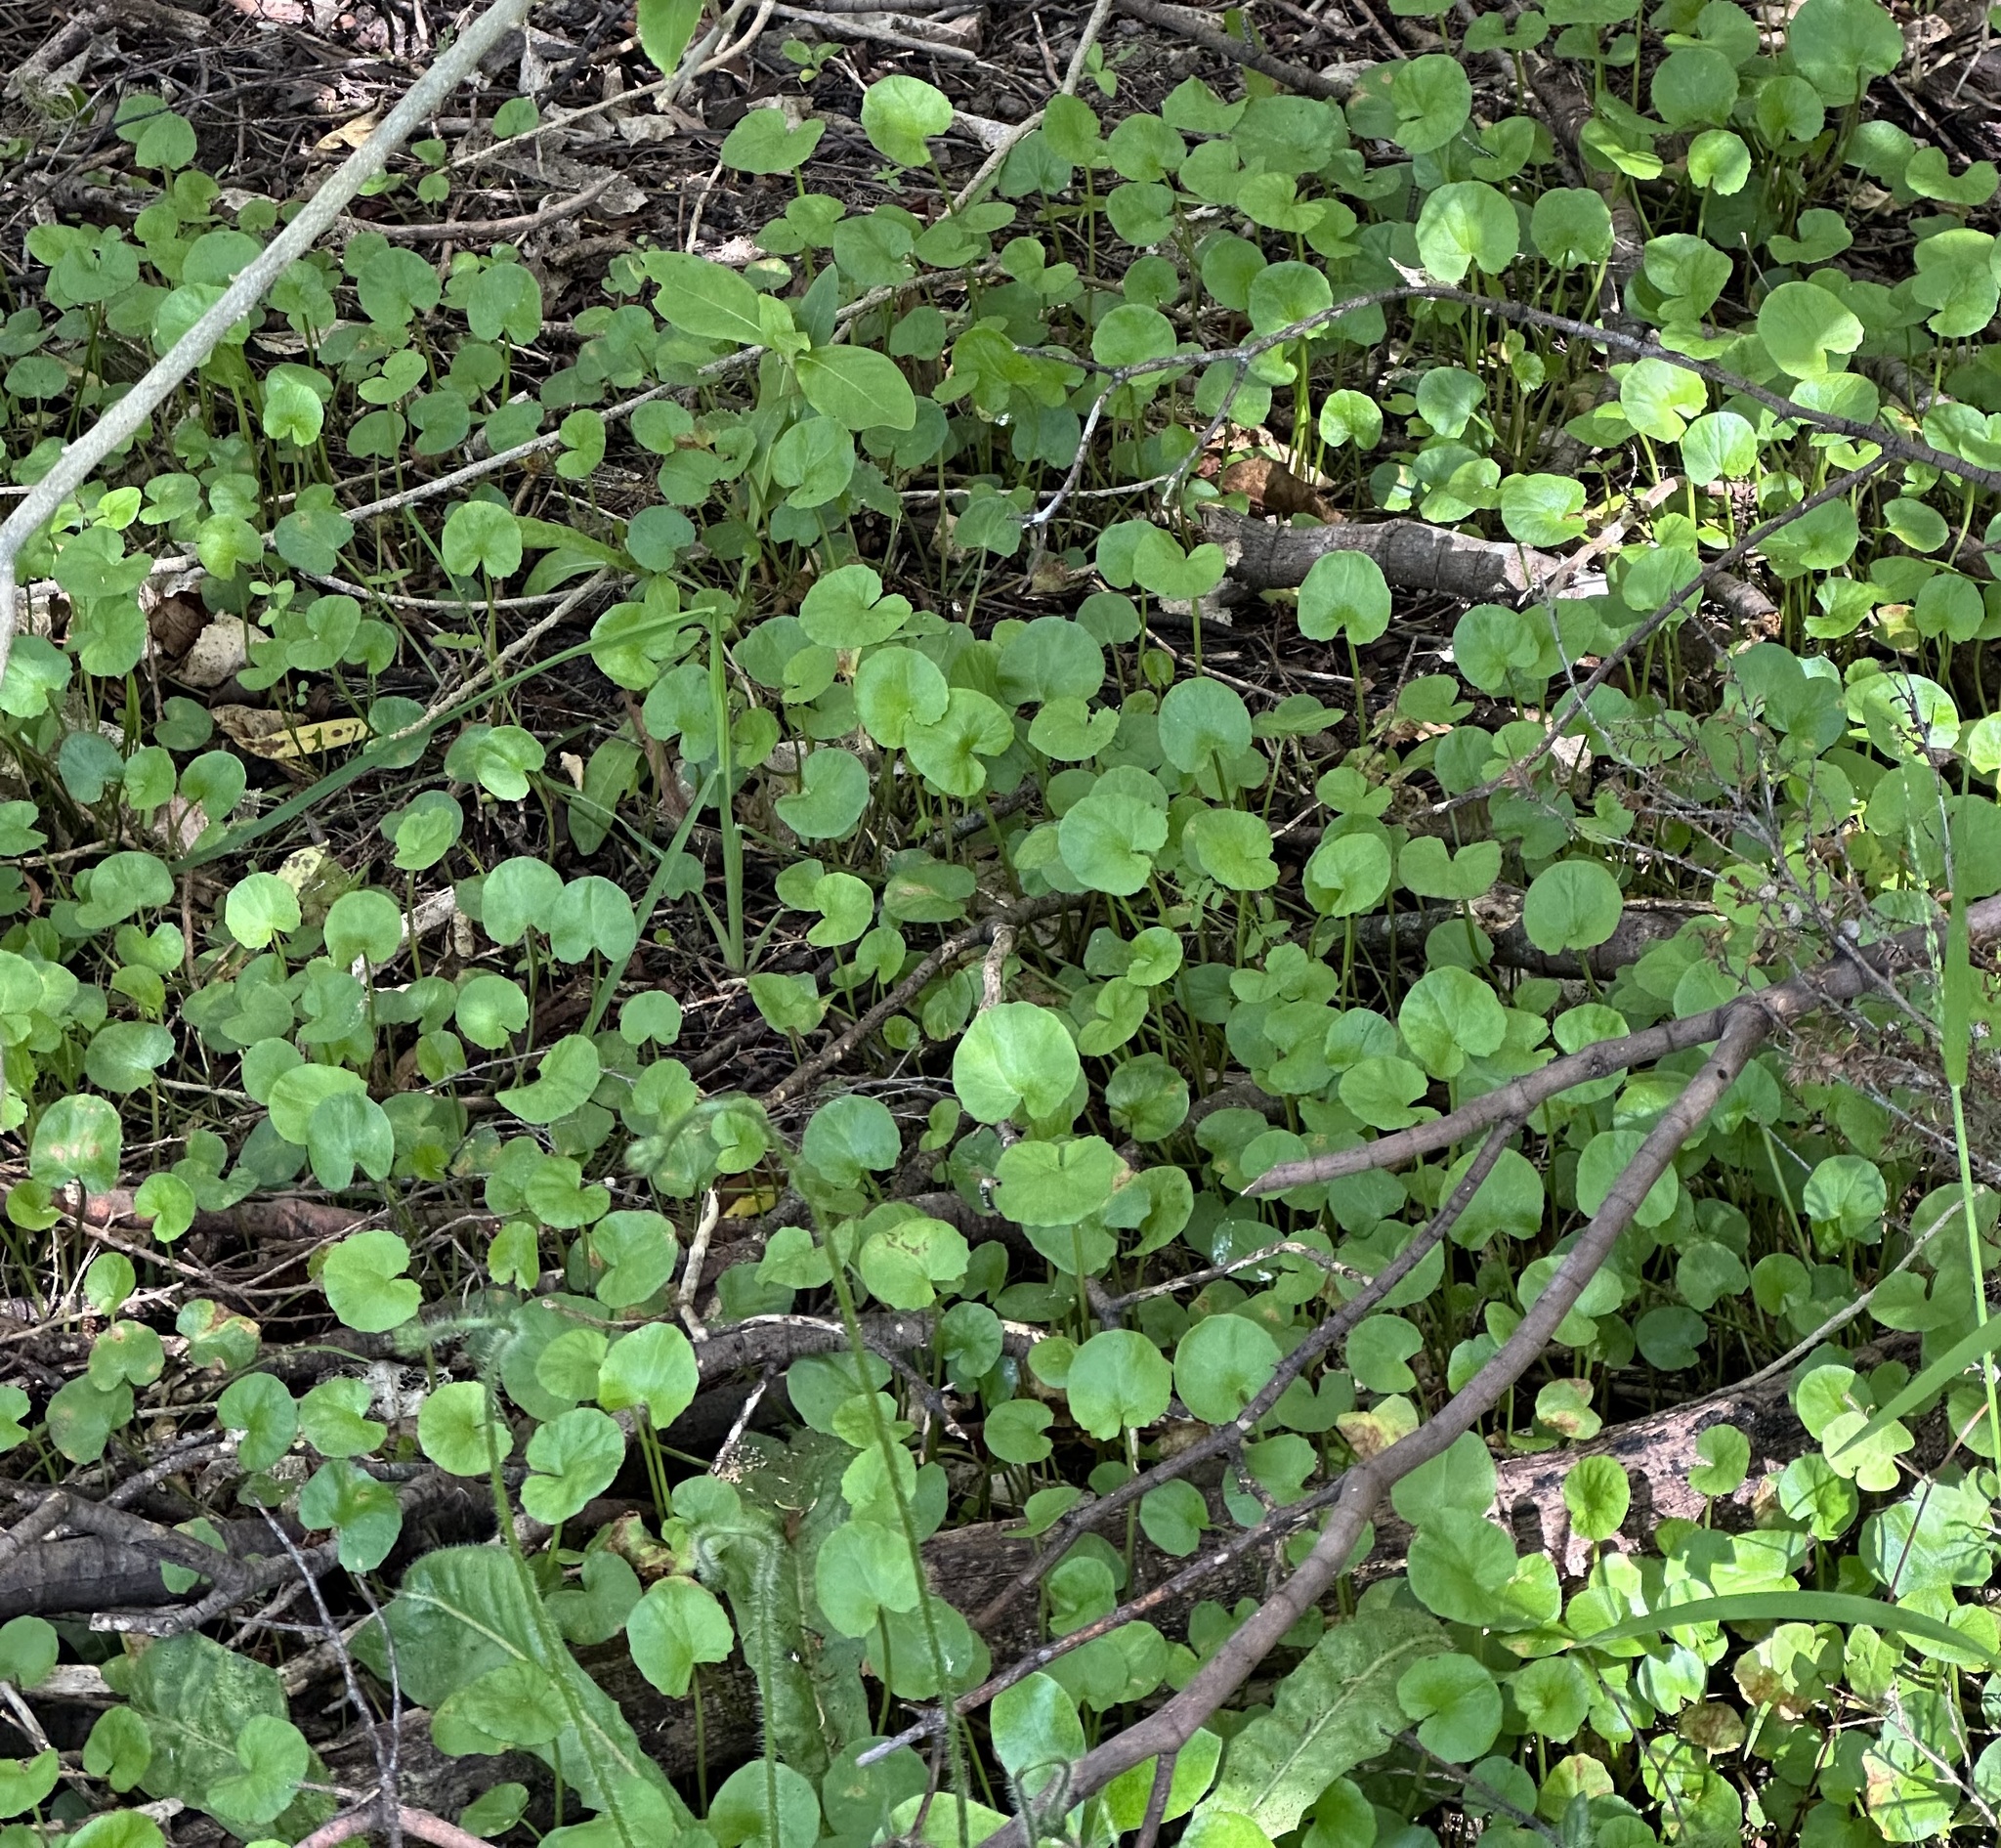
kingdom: Plantae
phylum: Tracheophyta
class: Magnoliopsida
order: Apiales
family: Apiaceae
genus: Centella
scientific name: Centella uniflora
